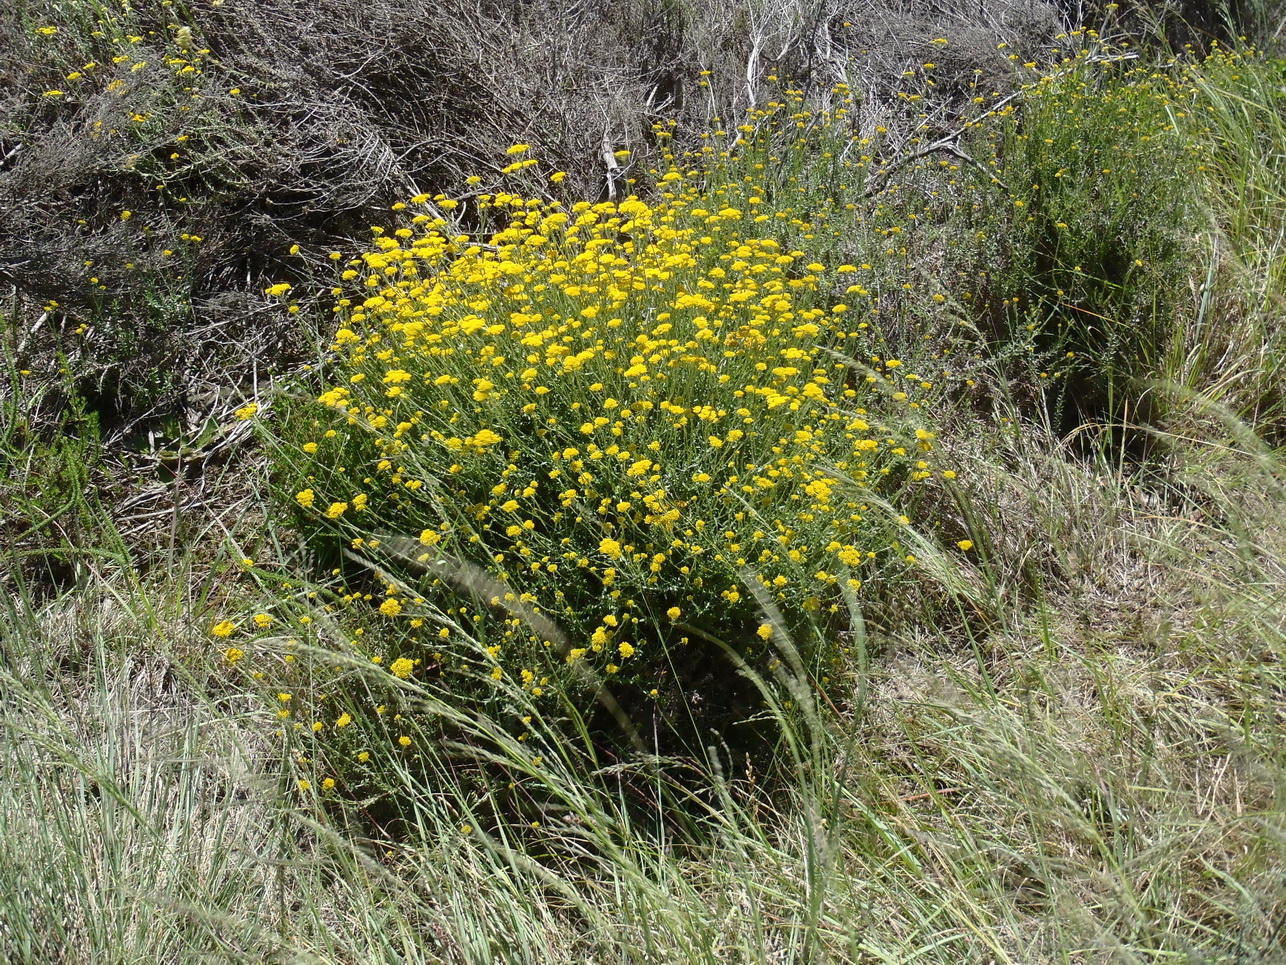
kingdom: Plantae
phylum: Tracheophyta
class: Magnoliopsida
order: Asterales
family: Asteraceae
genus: Helichrysum
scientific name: Helichrysum cymosum
